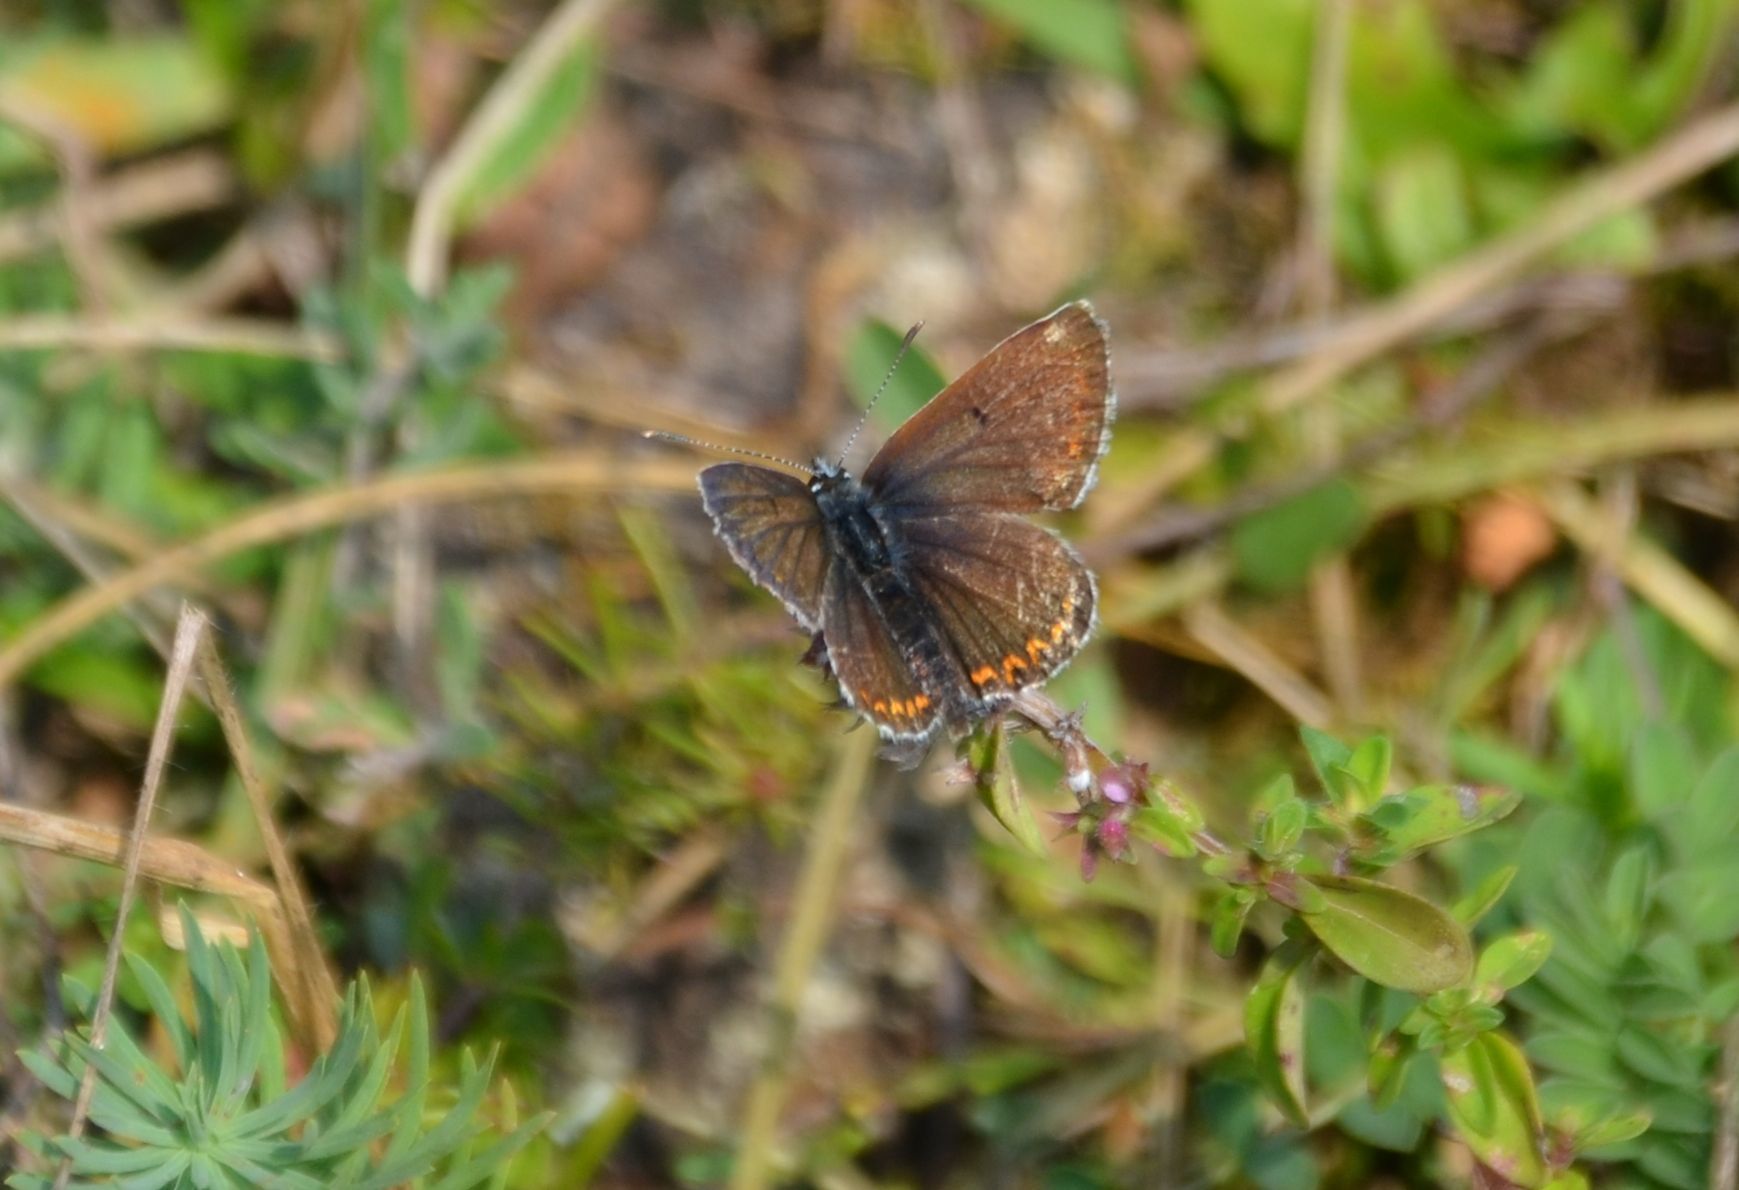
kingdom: Animalia
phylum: Arthropoda
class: Insecta
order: Lepidoptera
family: Lycaenidae
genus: Aricia
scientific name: Aricia agestis
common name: Brown argus
